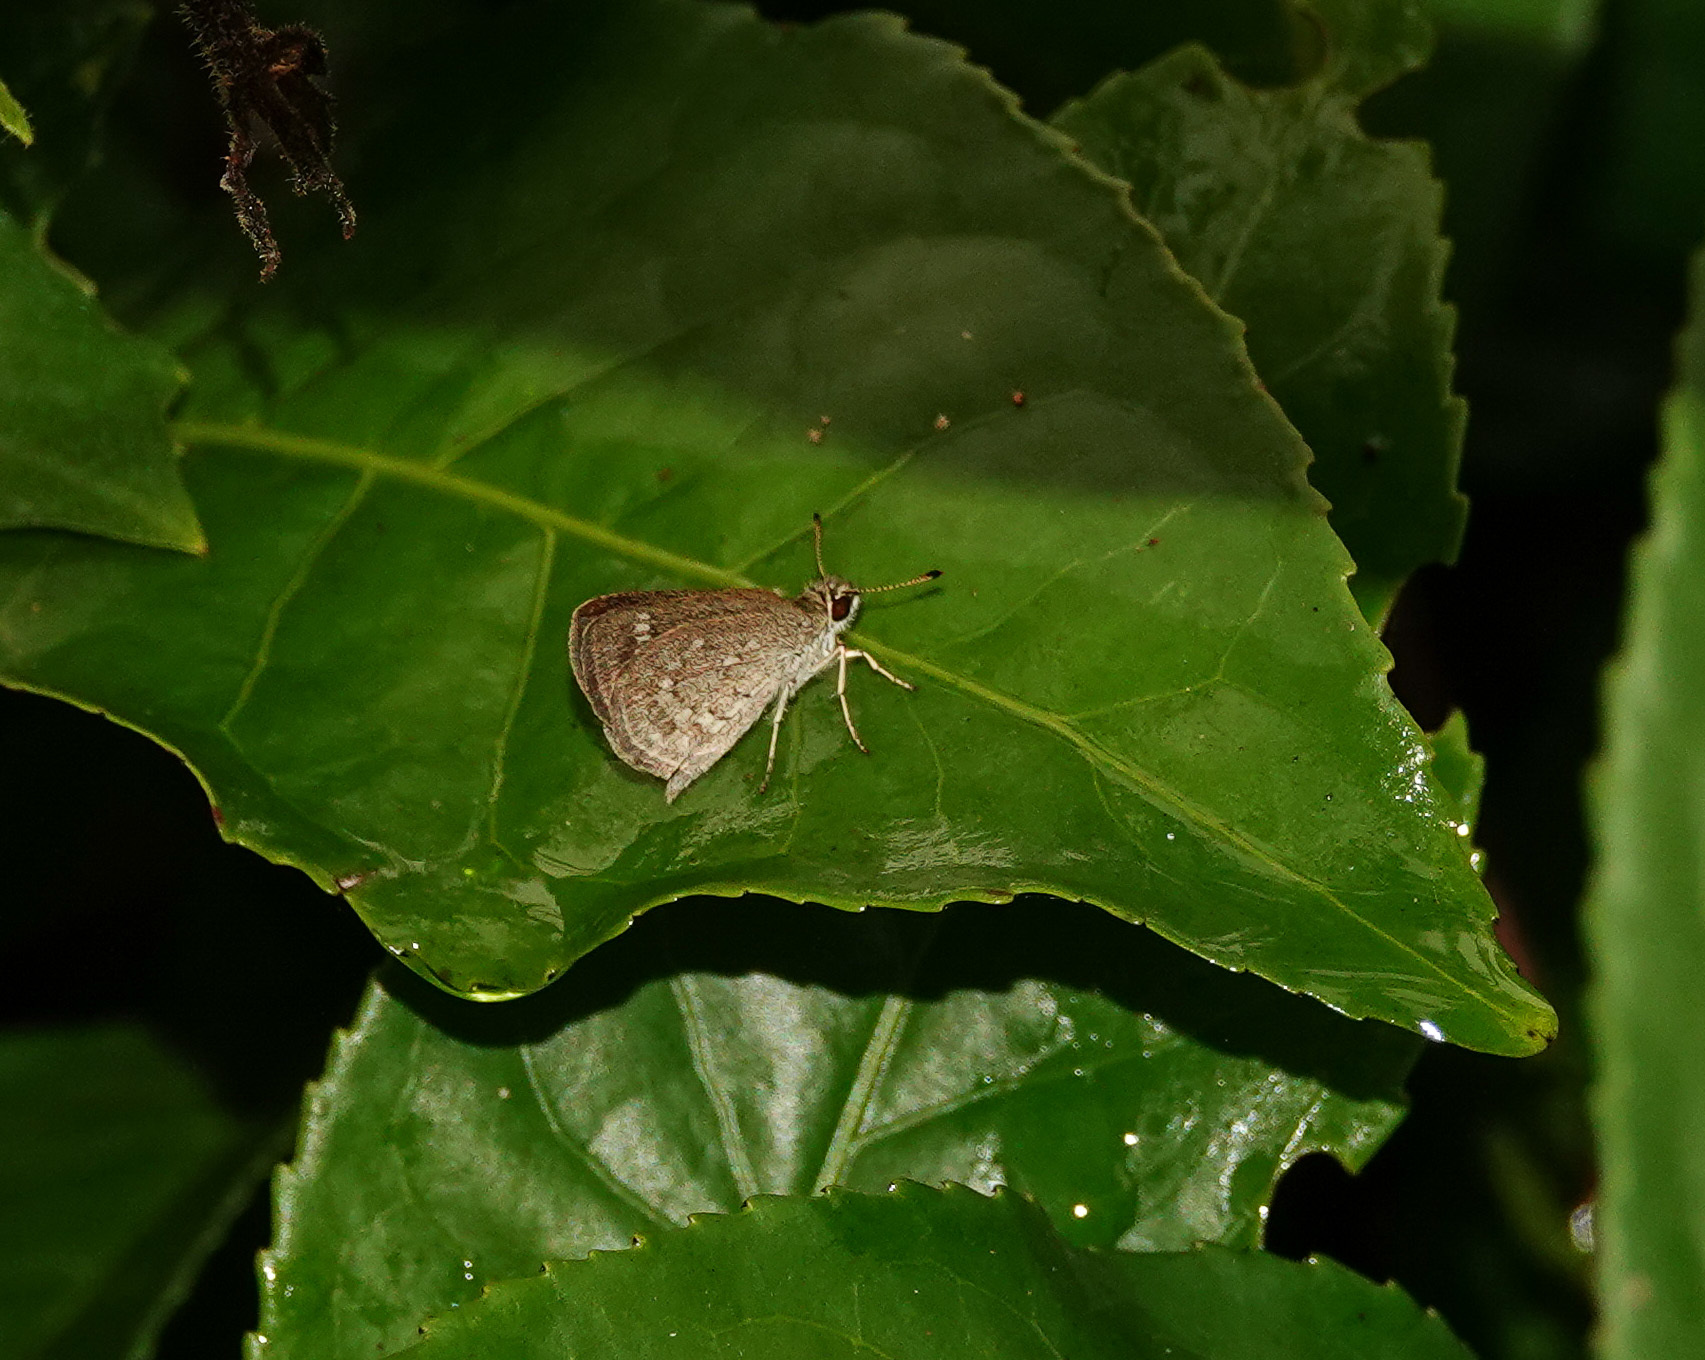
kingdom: Animalia
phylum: Arthropoda
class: Insecta
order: Lepidoptera
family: Hesperiidae
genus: Aeromachus
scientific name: Aeromachus pygmaeus
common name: Pygmy scrub hopper
